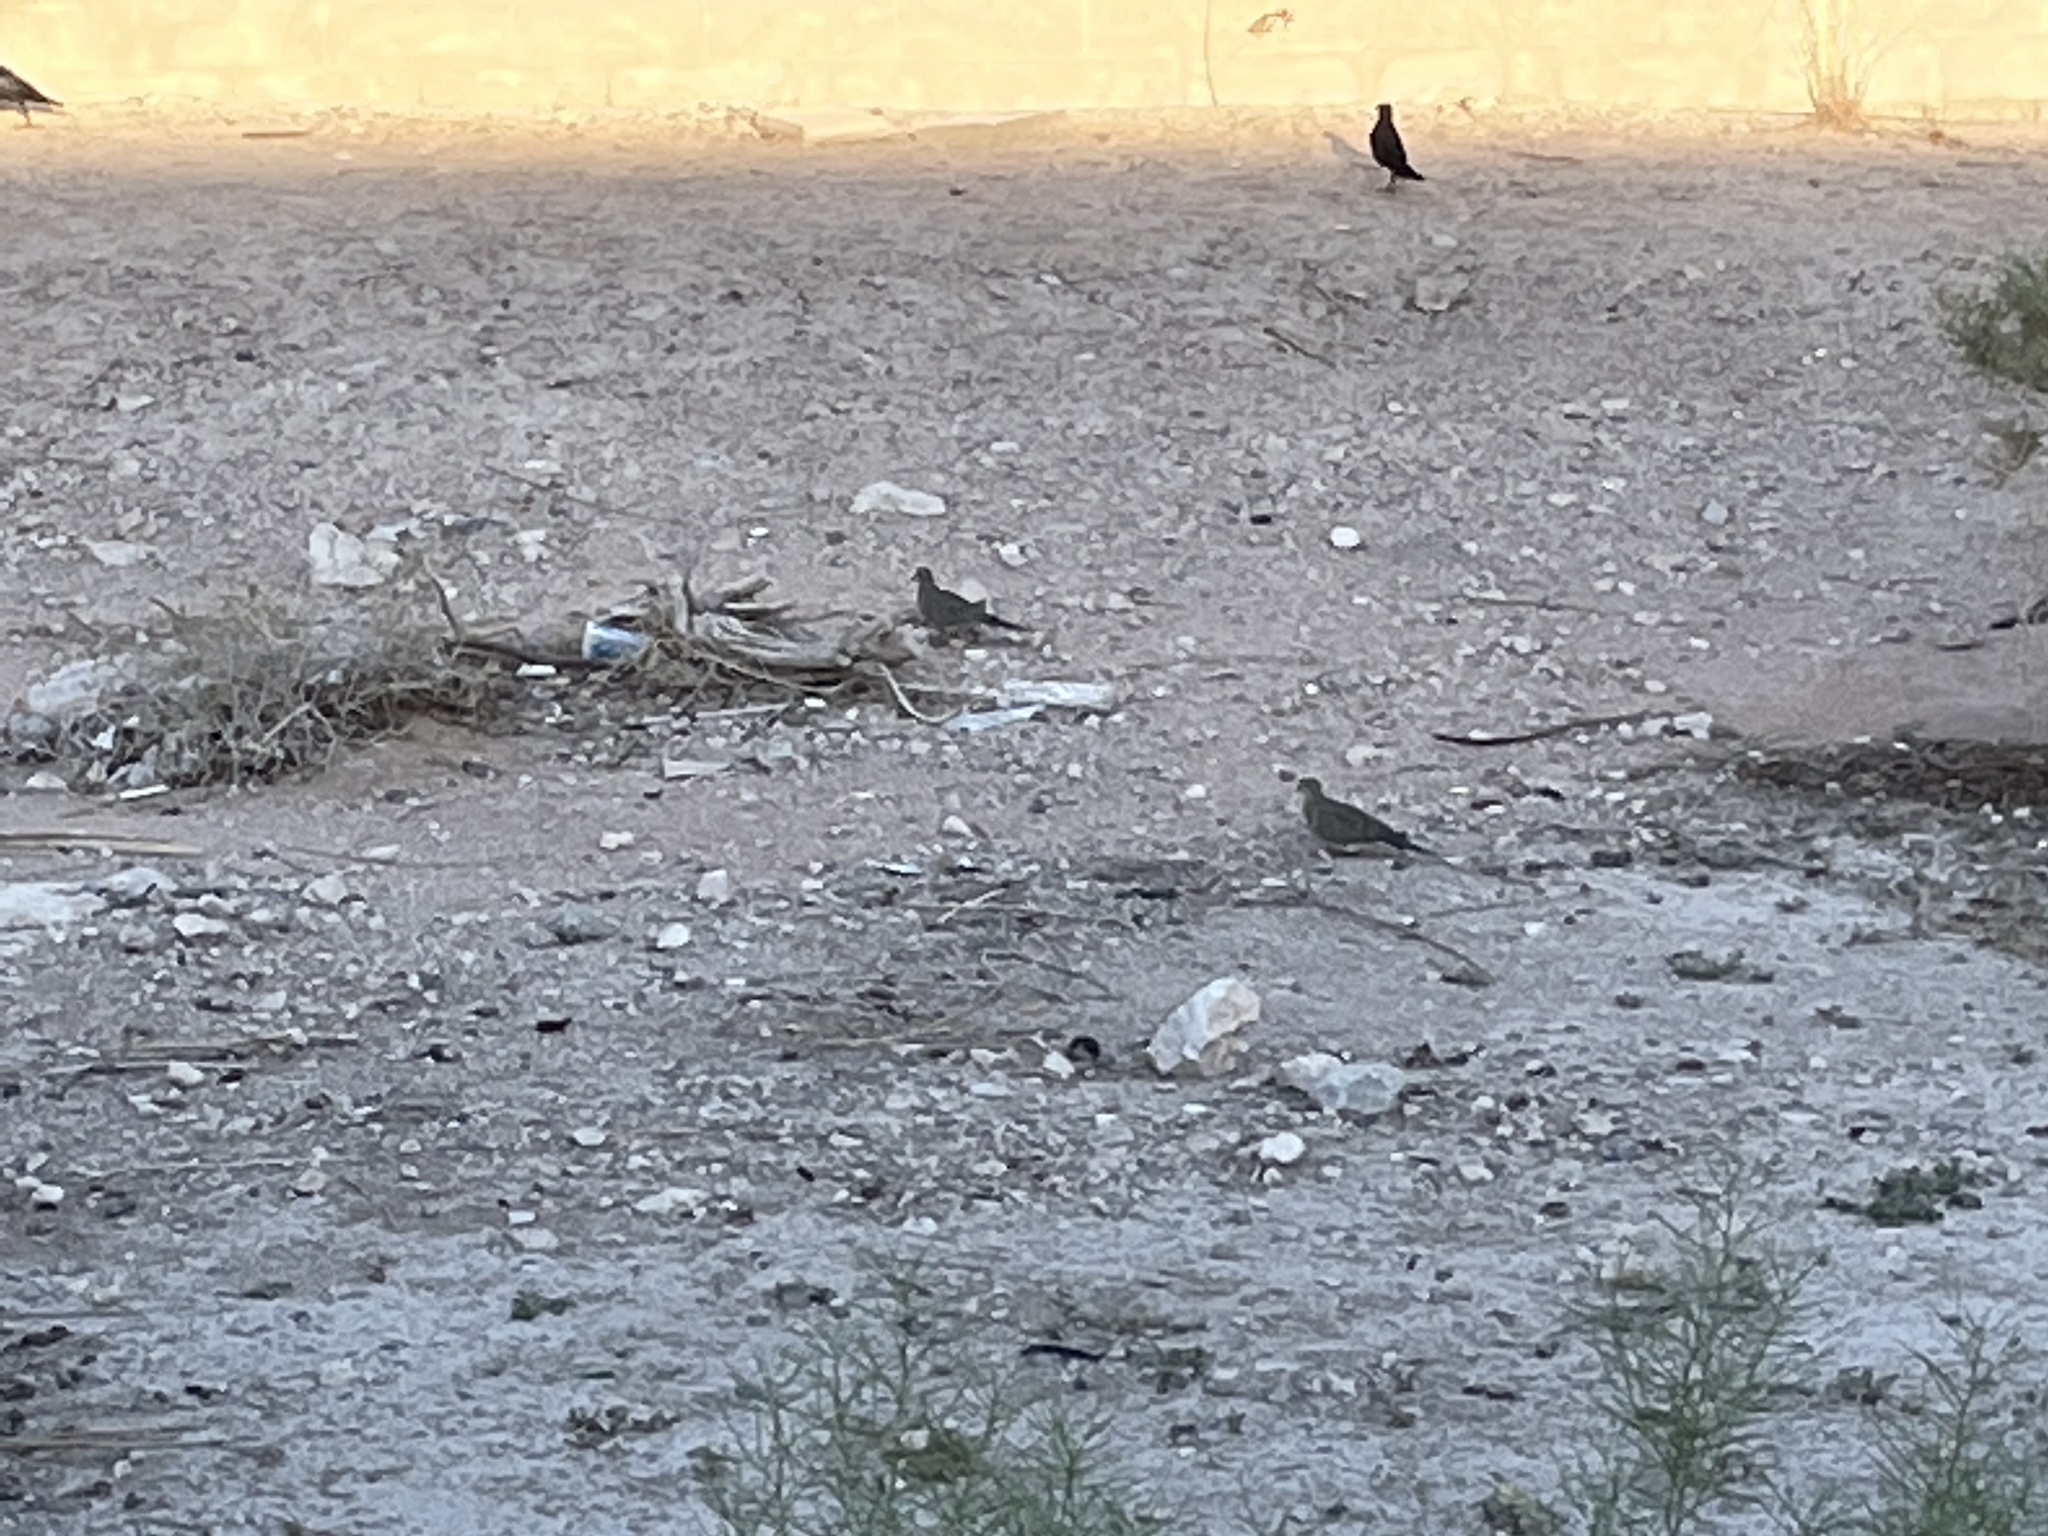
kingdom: Animalia
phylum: Chordata
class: Aves
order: Columbiformes
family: Columbidae
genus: Zenaida
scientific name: Zenaida macroura
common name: Mourning dove
